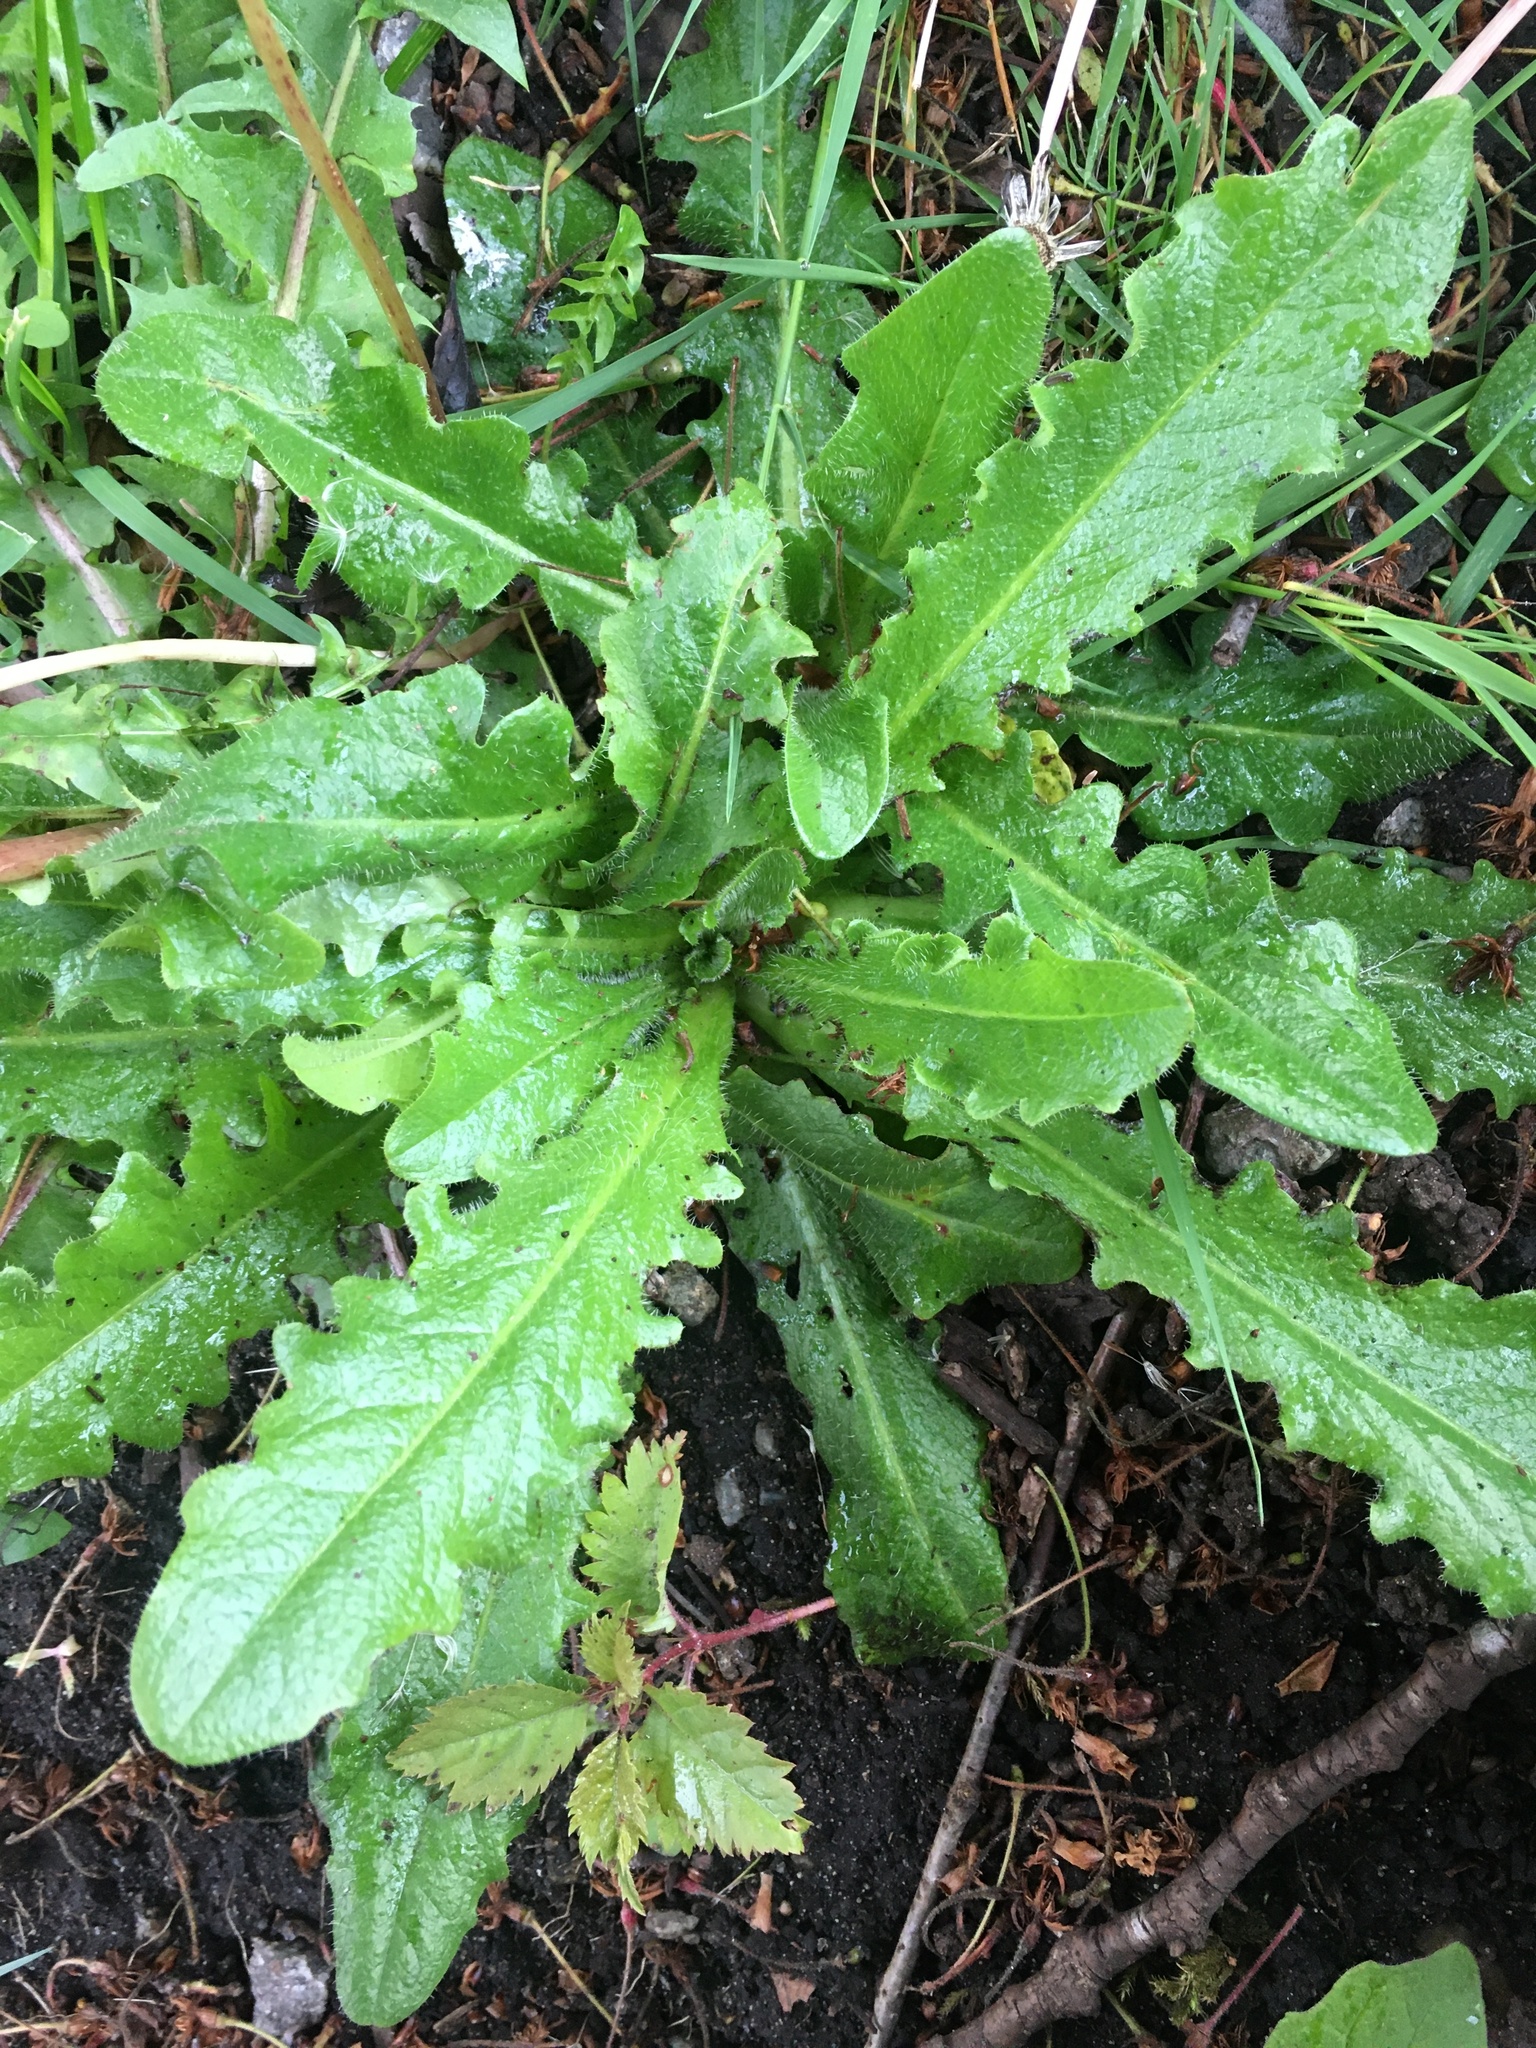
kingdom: Plantae
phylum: Tracheophyta
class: Magnoliopsida
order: Asterales
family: Asteraceae
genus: Hypochaeris
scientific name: Hypochaeris radicata
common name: Flatweed
